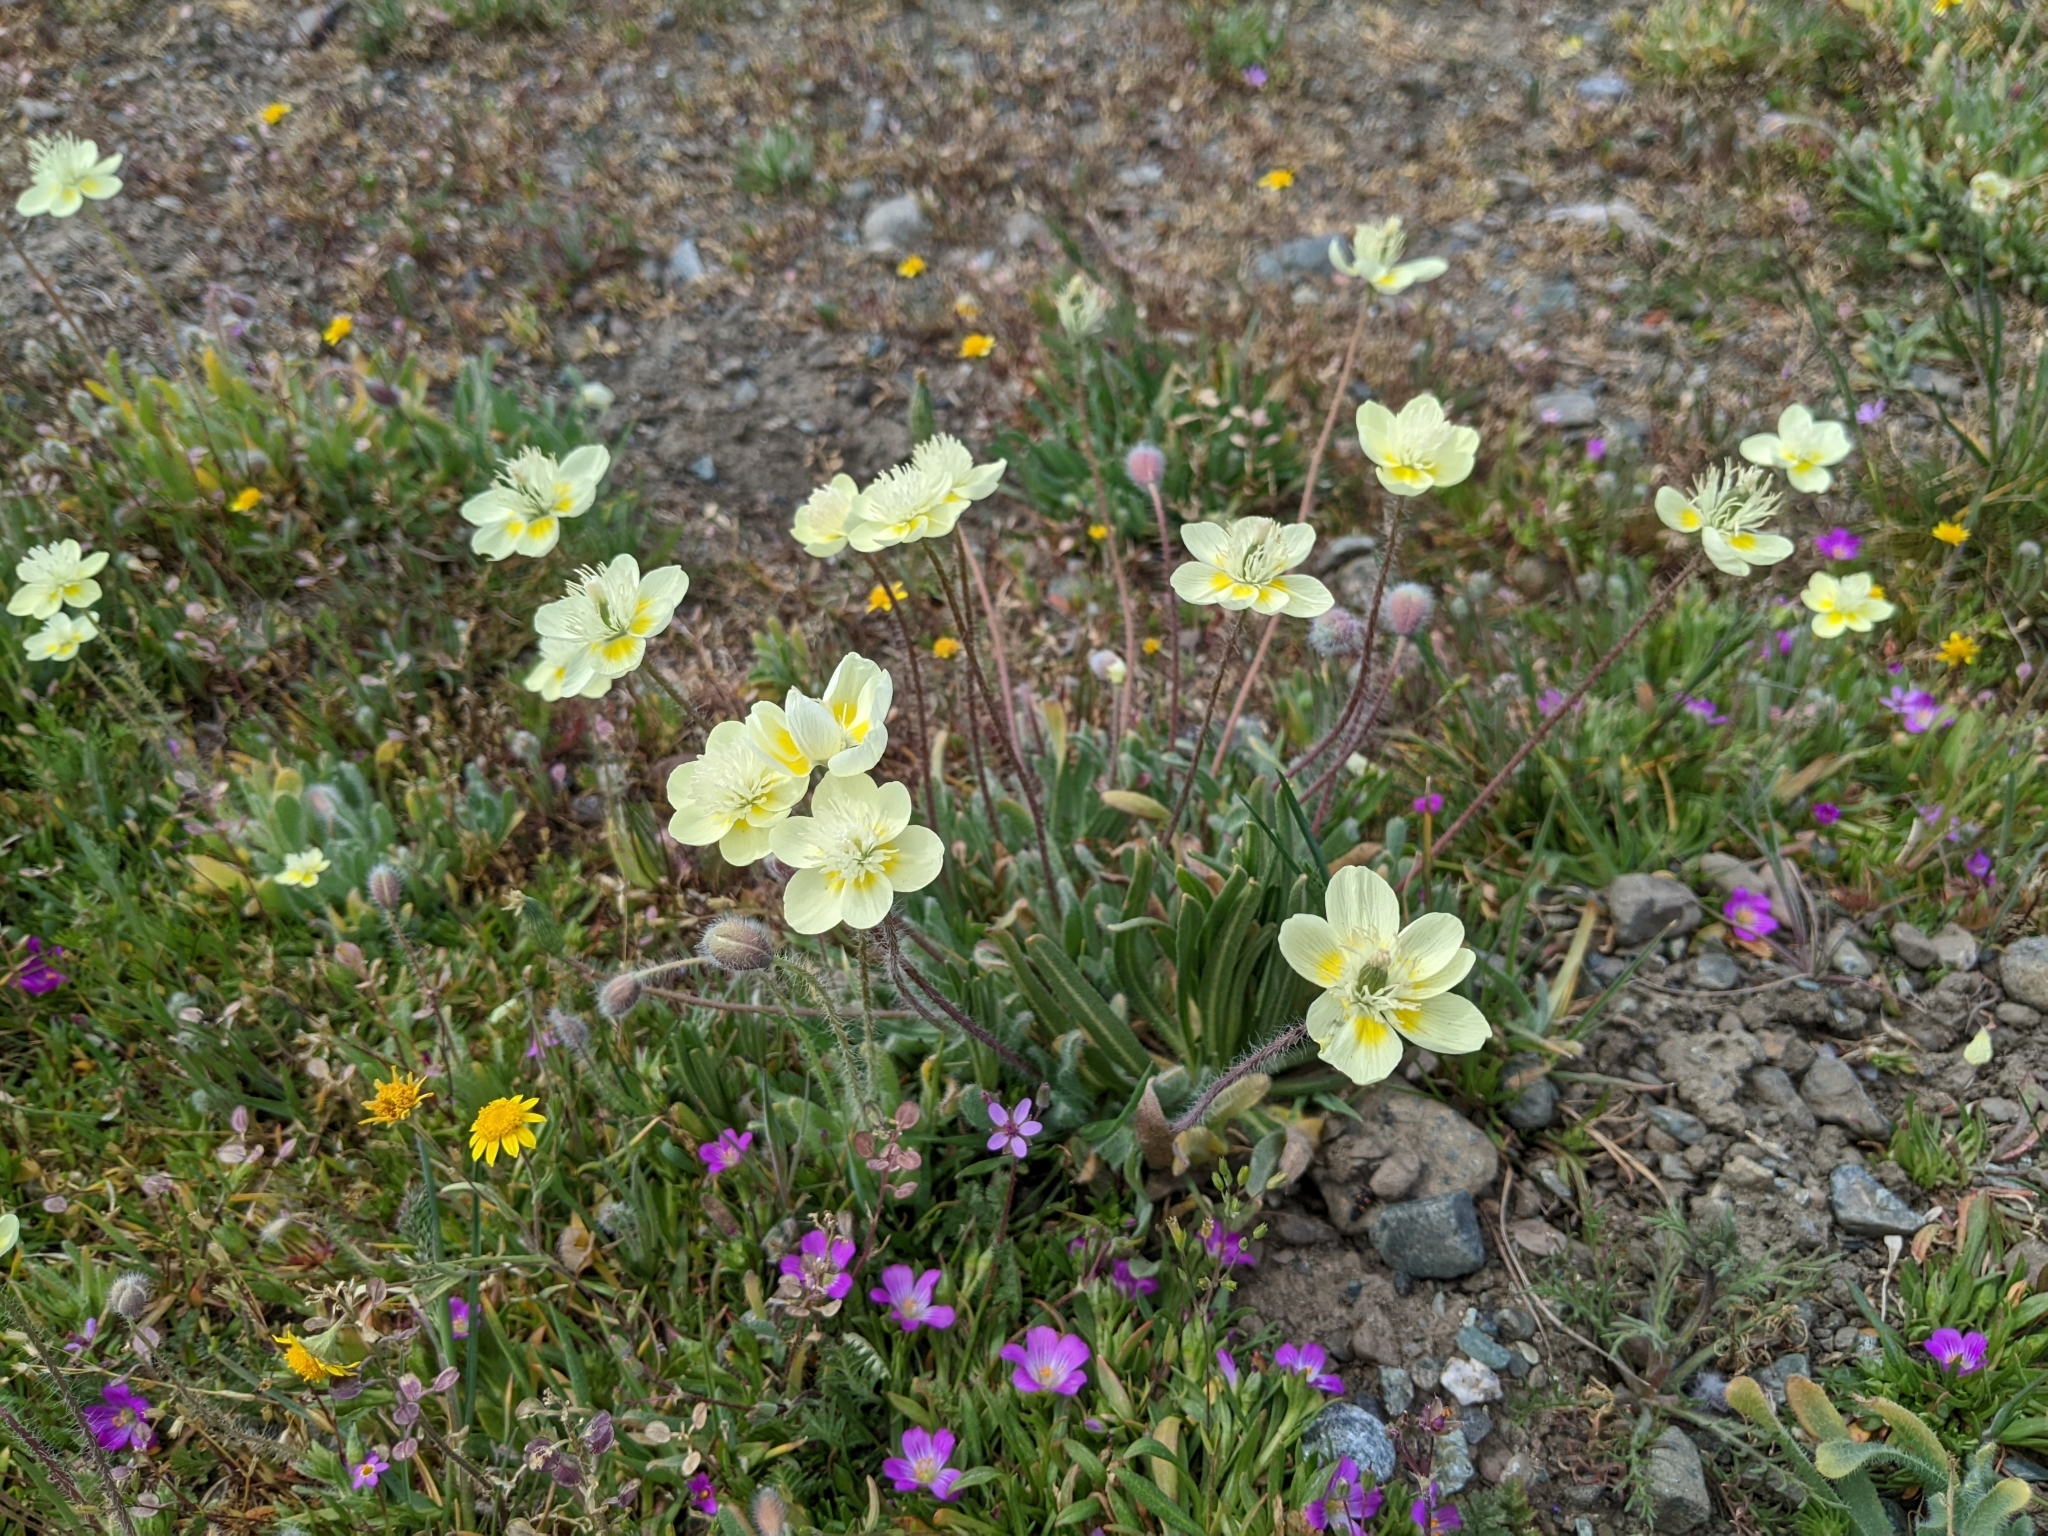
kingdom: Plantae
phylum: Tracheophyta
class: Magnoliopsida
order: Ranunculales
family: Papaveraceae
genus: Platystemon
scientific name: Platystemon californicus
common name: Cream-cups
